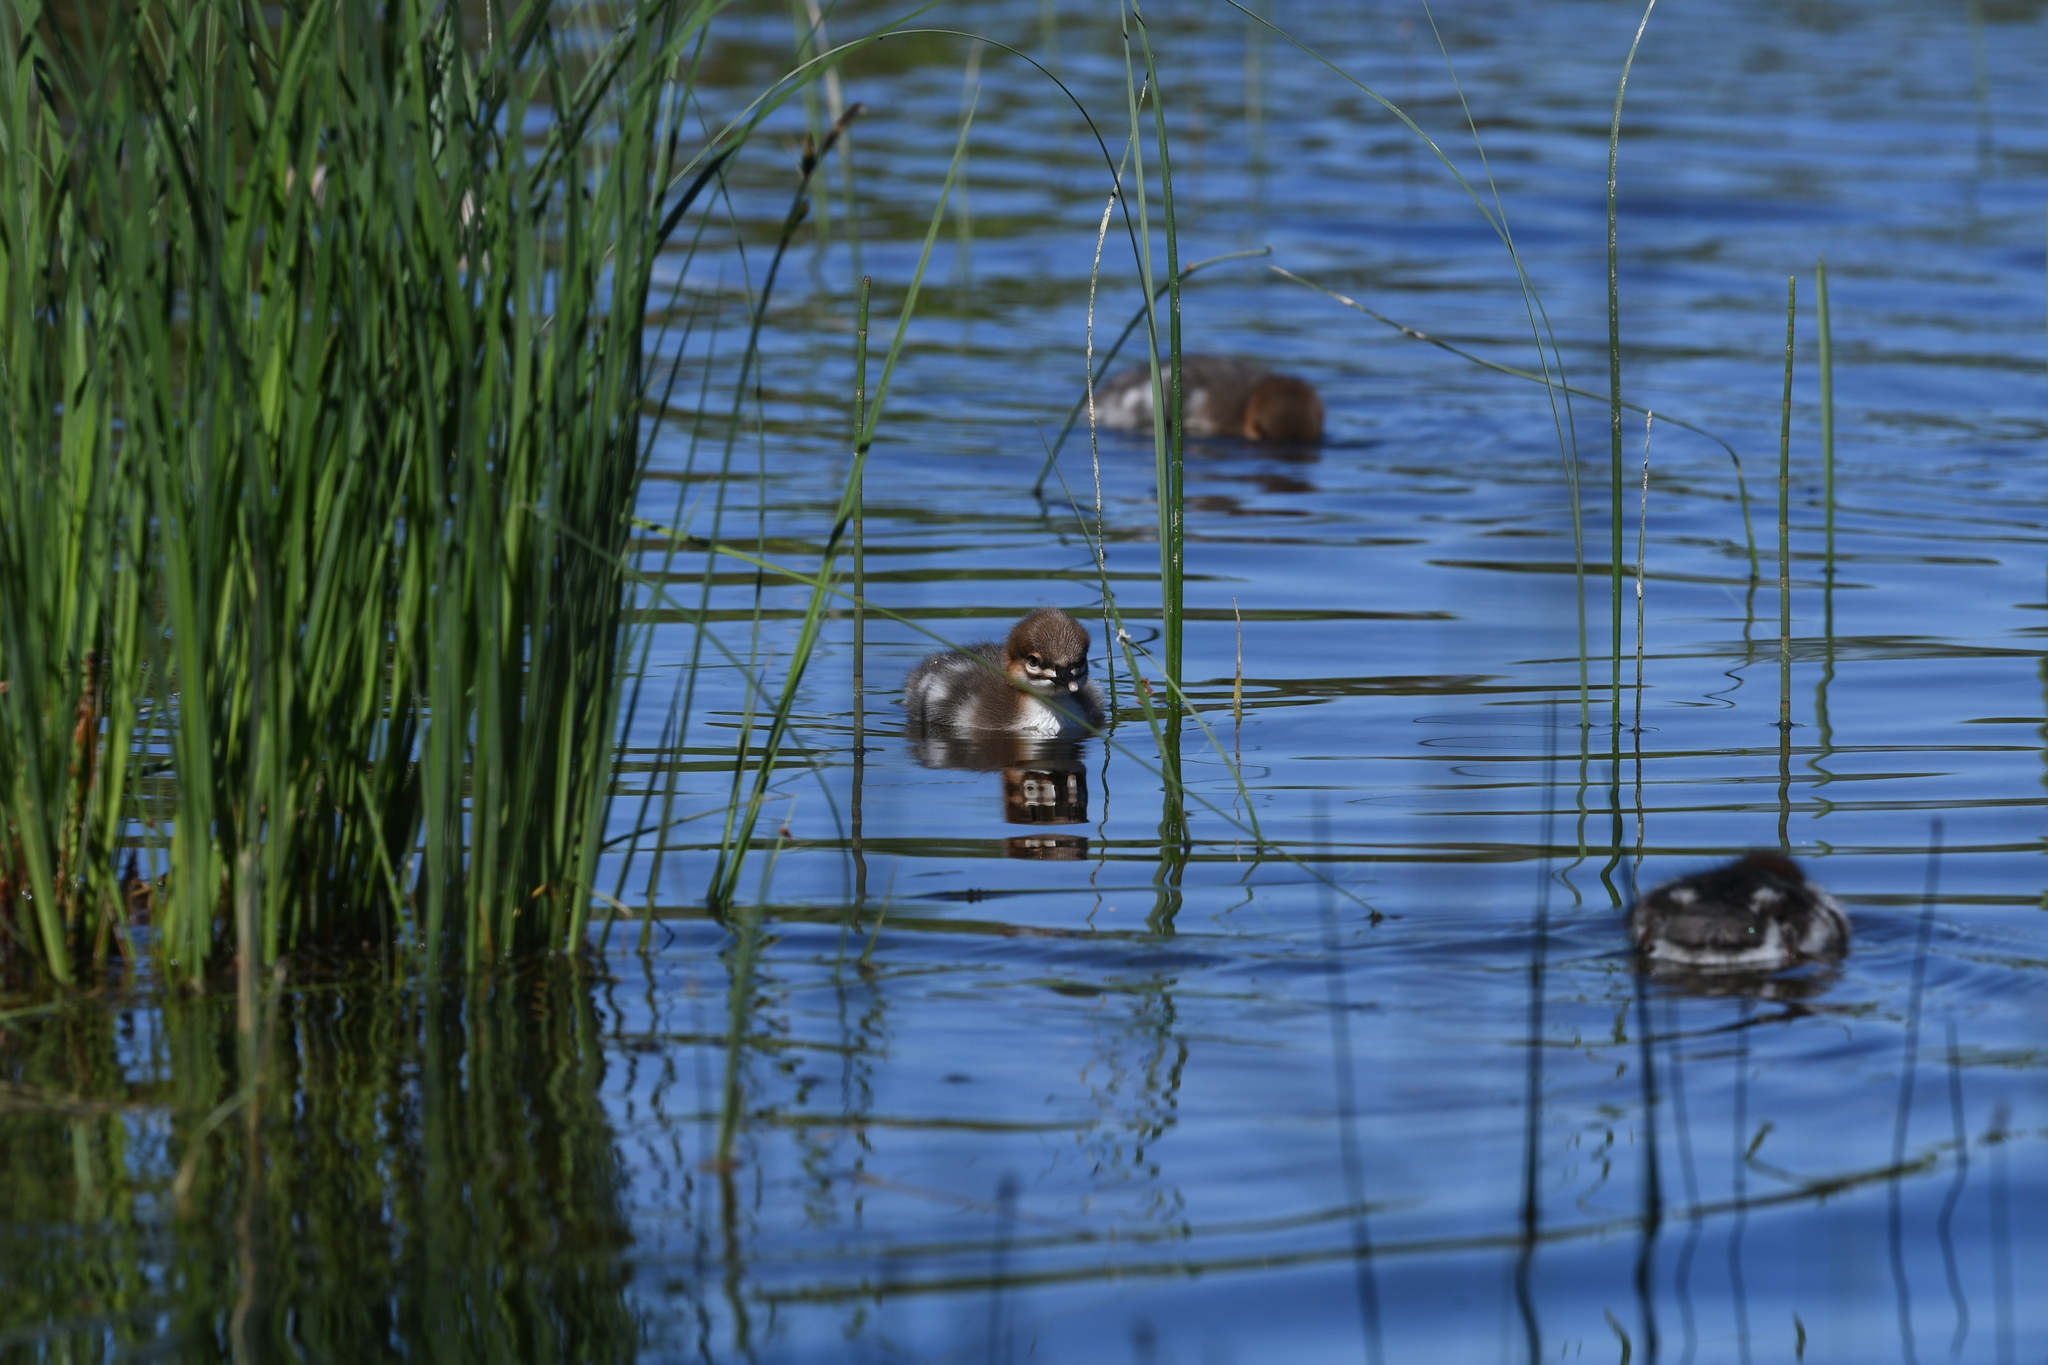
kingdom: Animalia
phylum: Chordata
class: Aves
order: Anseriformes
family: Anatidae
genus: Mergus
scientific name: Mergus merganser
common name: Common merganser
